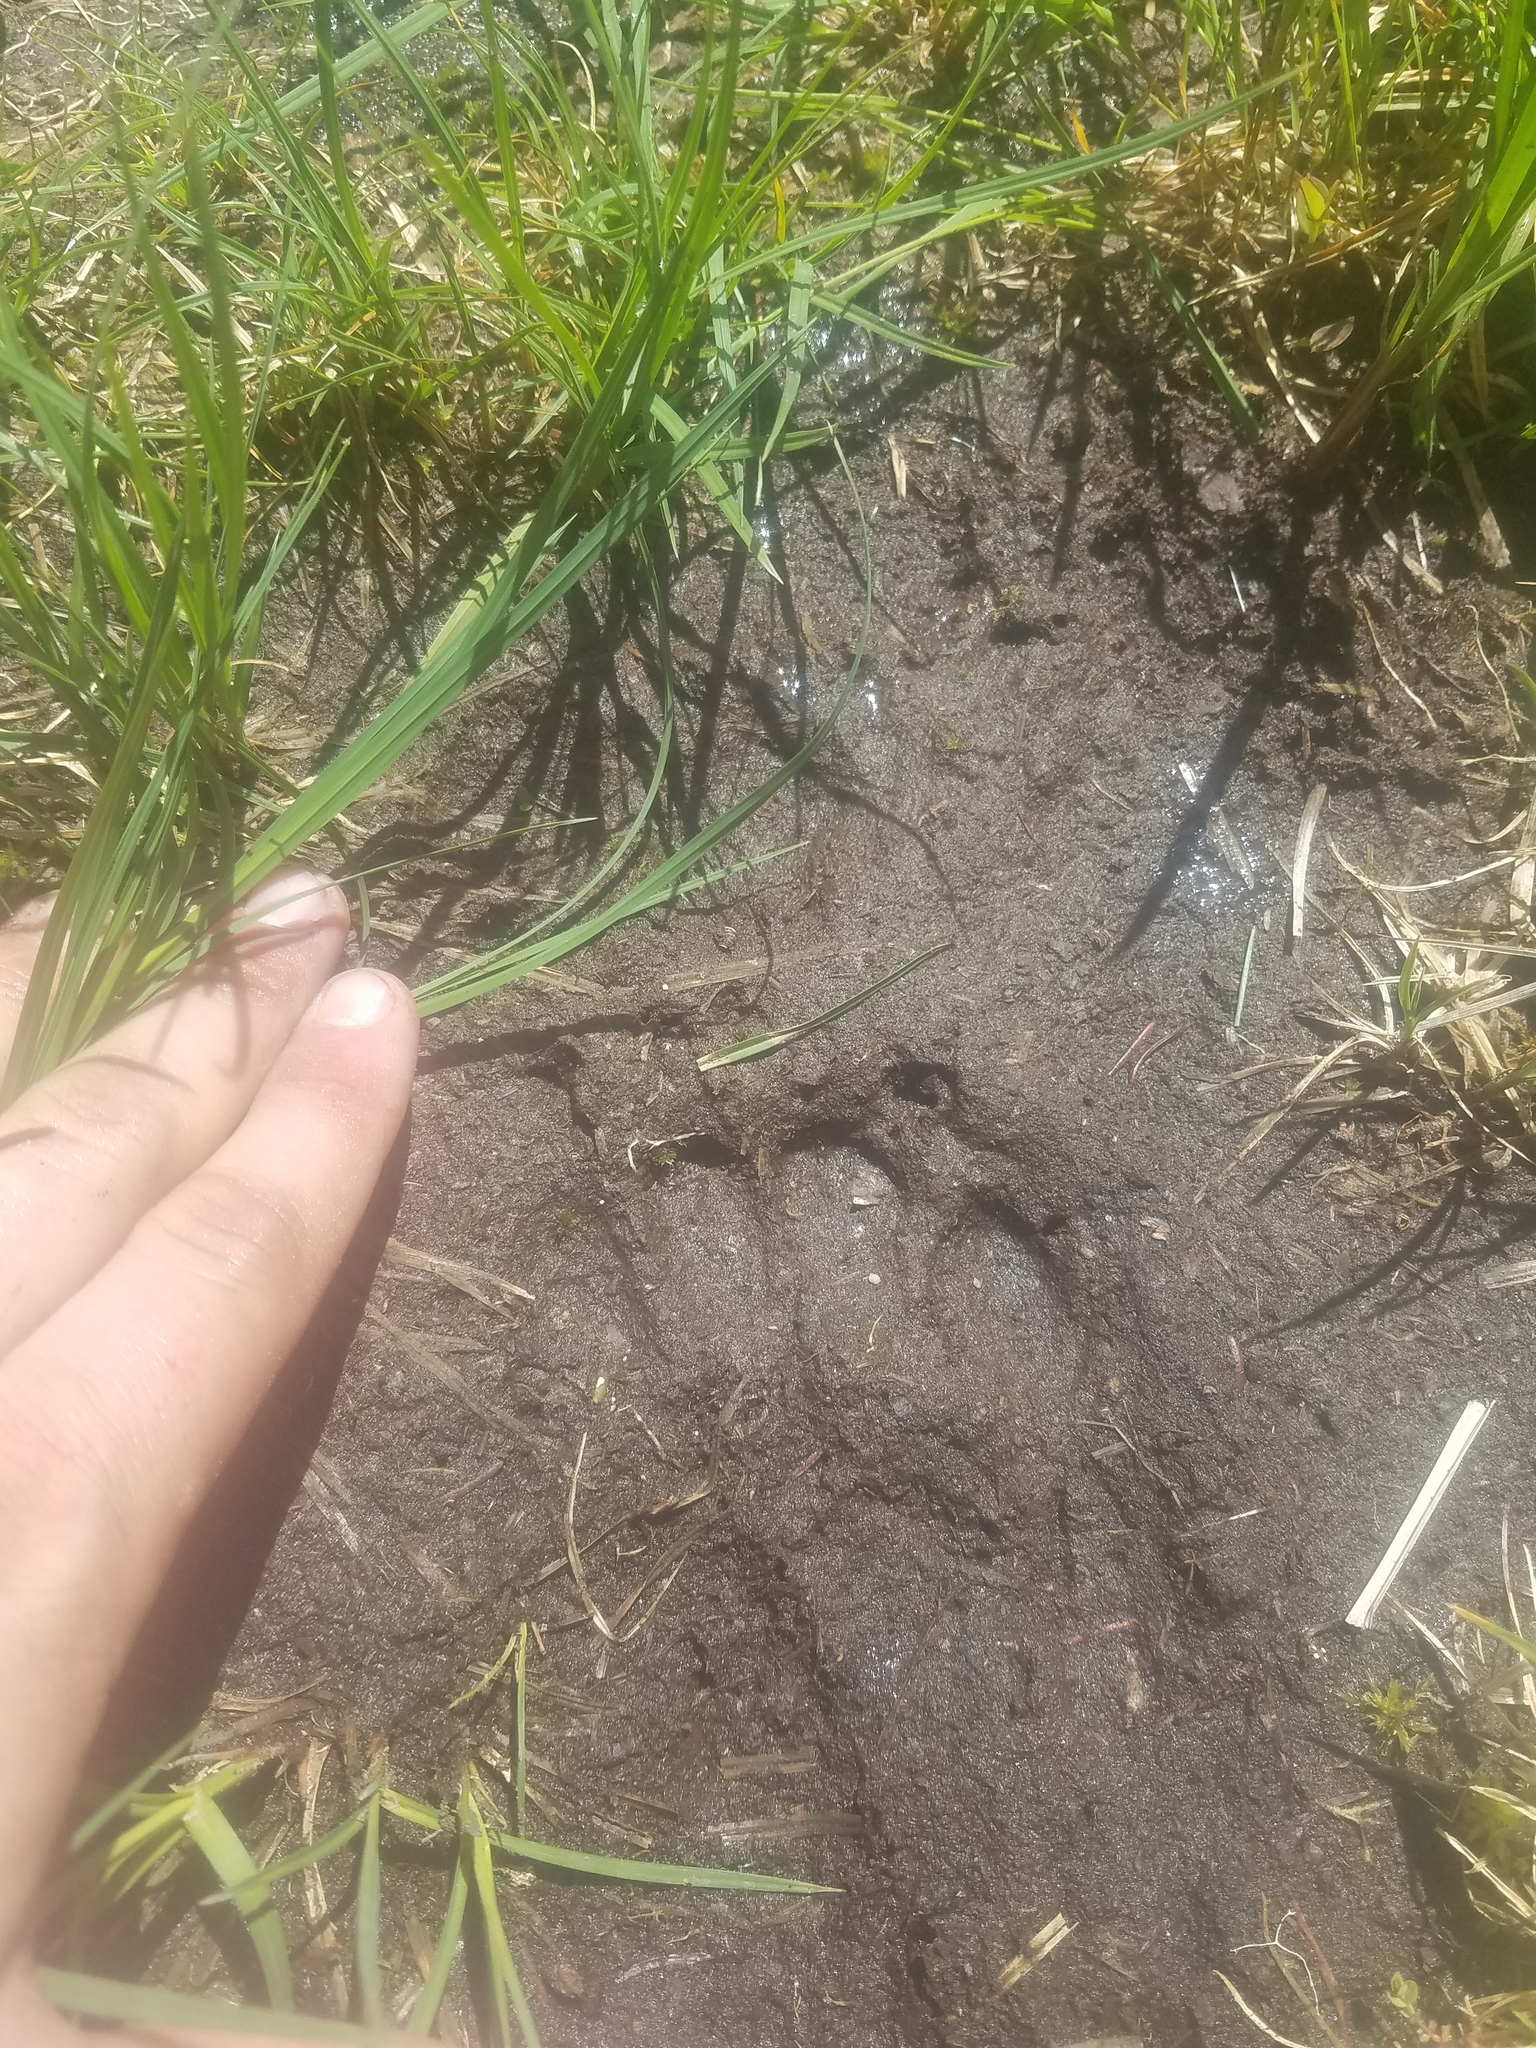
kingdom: Animalia
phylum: Chordata
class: Mammalia
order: Carnivora
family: Ursidae
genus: Ursus
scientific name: Ursus americanus
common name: American black bear
